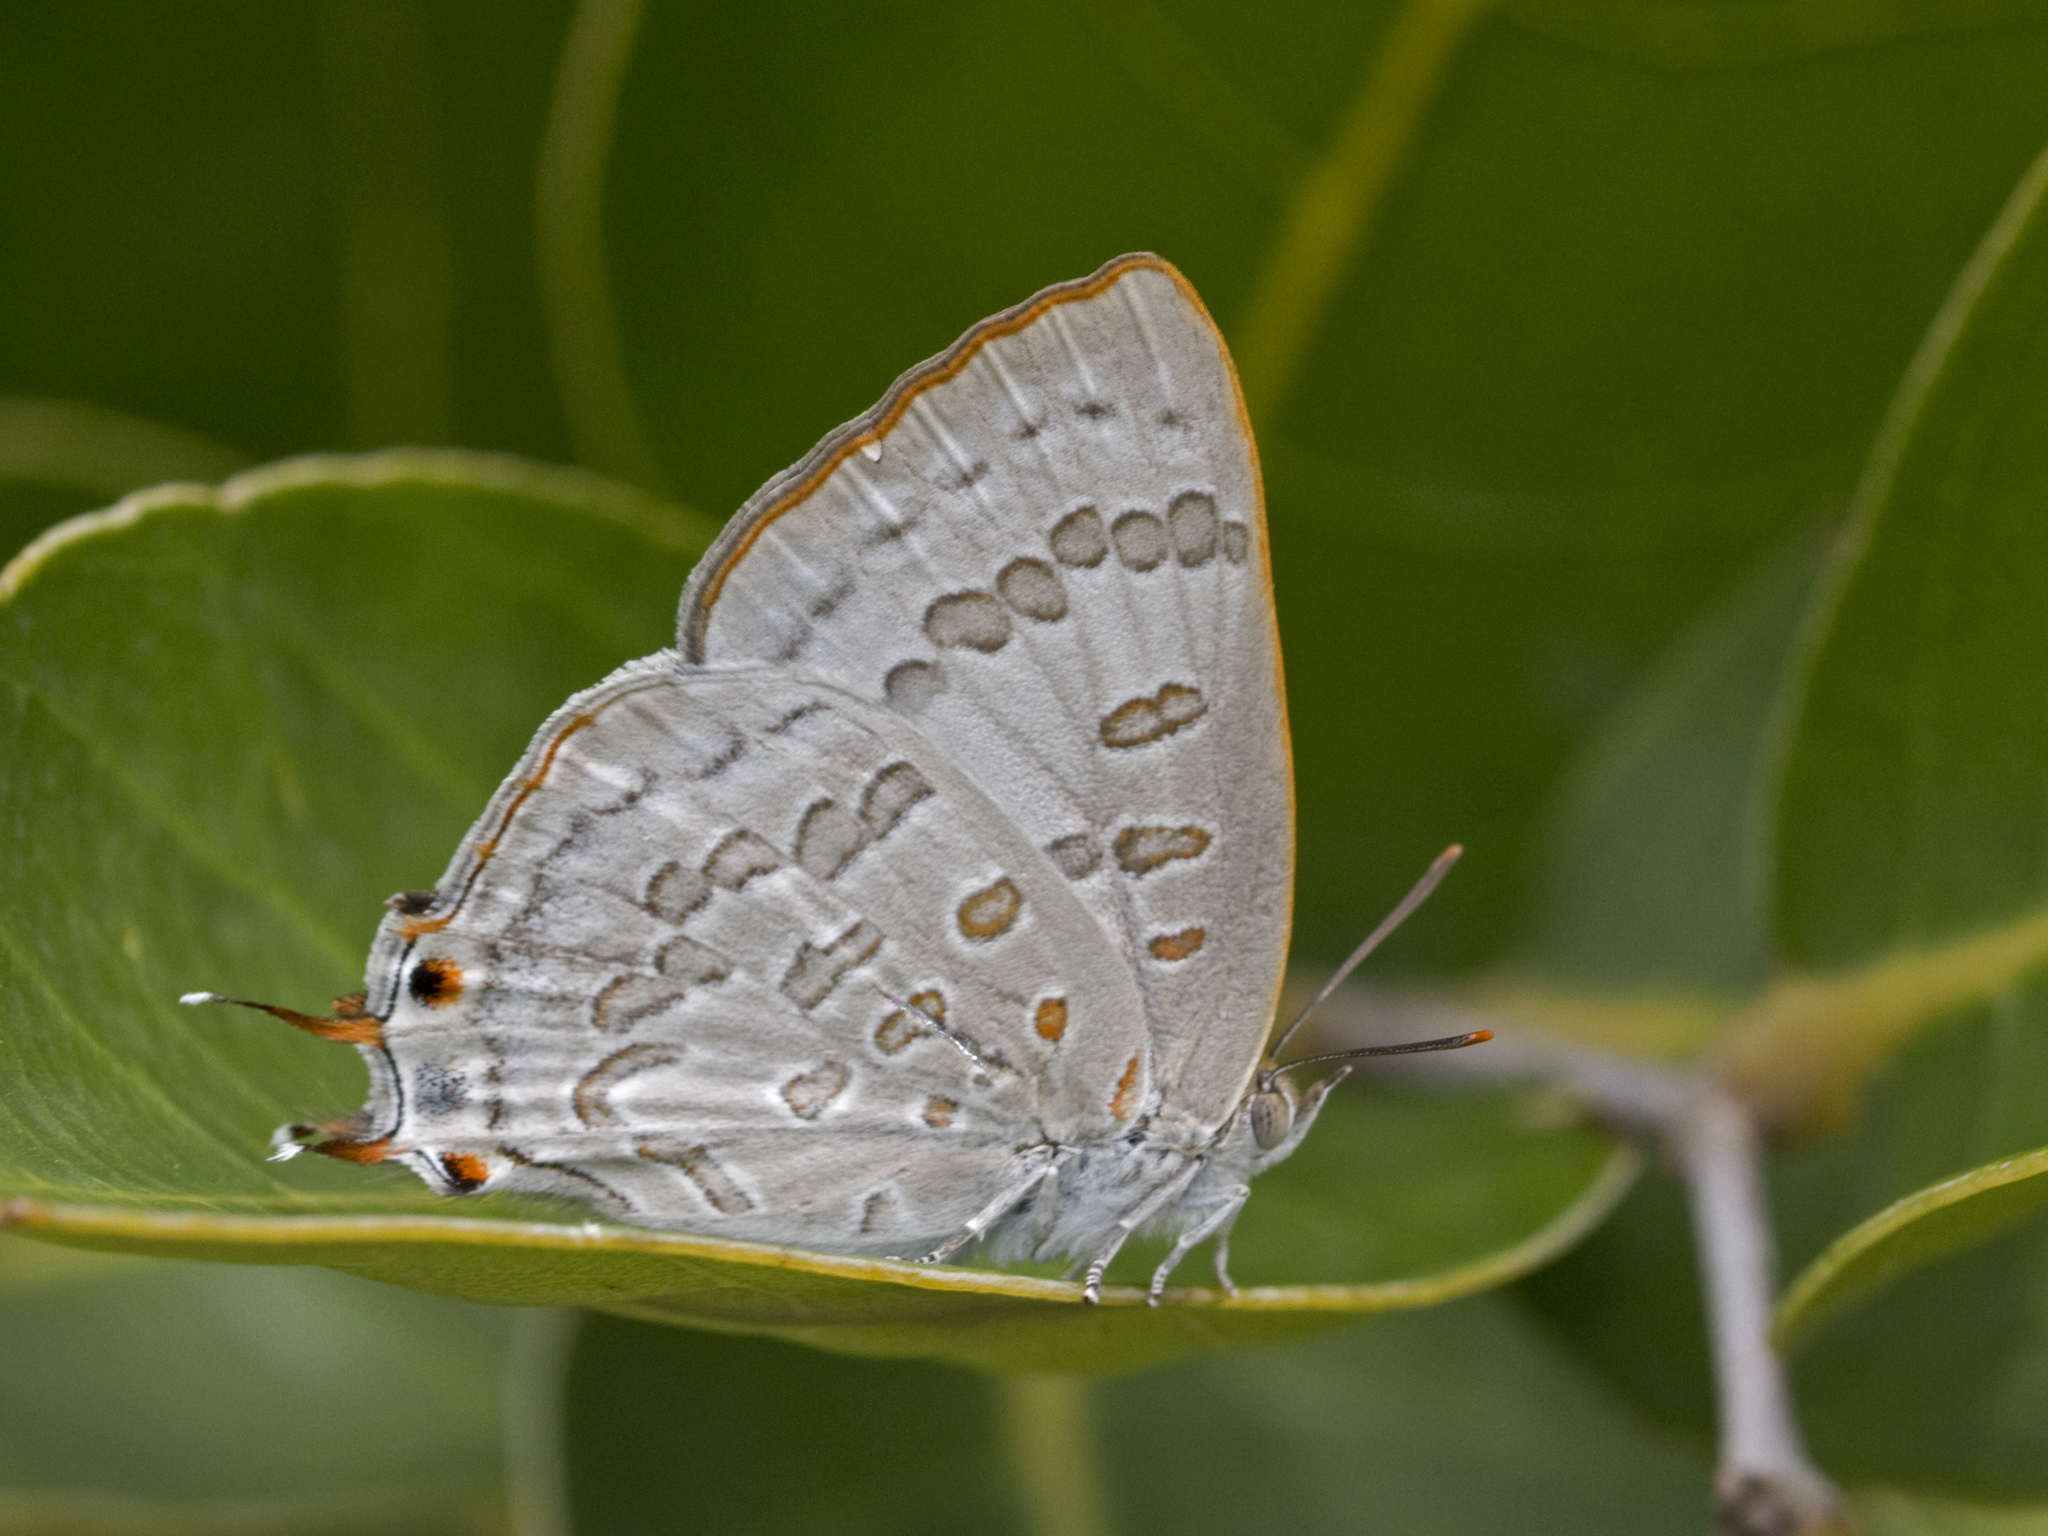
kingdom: Animalia
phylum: Arthropoda
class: Insecta
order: Lepidoptera
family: Lycaenidae
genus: Zesius
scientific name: Zesius chrysomallus
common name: Redspot
